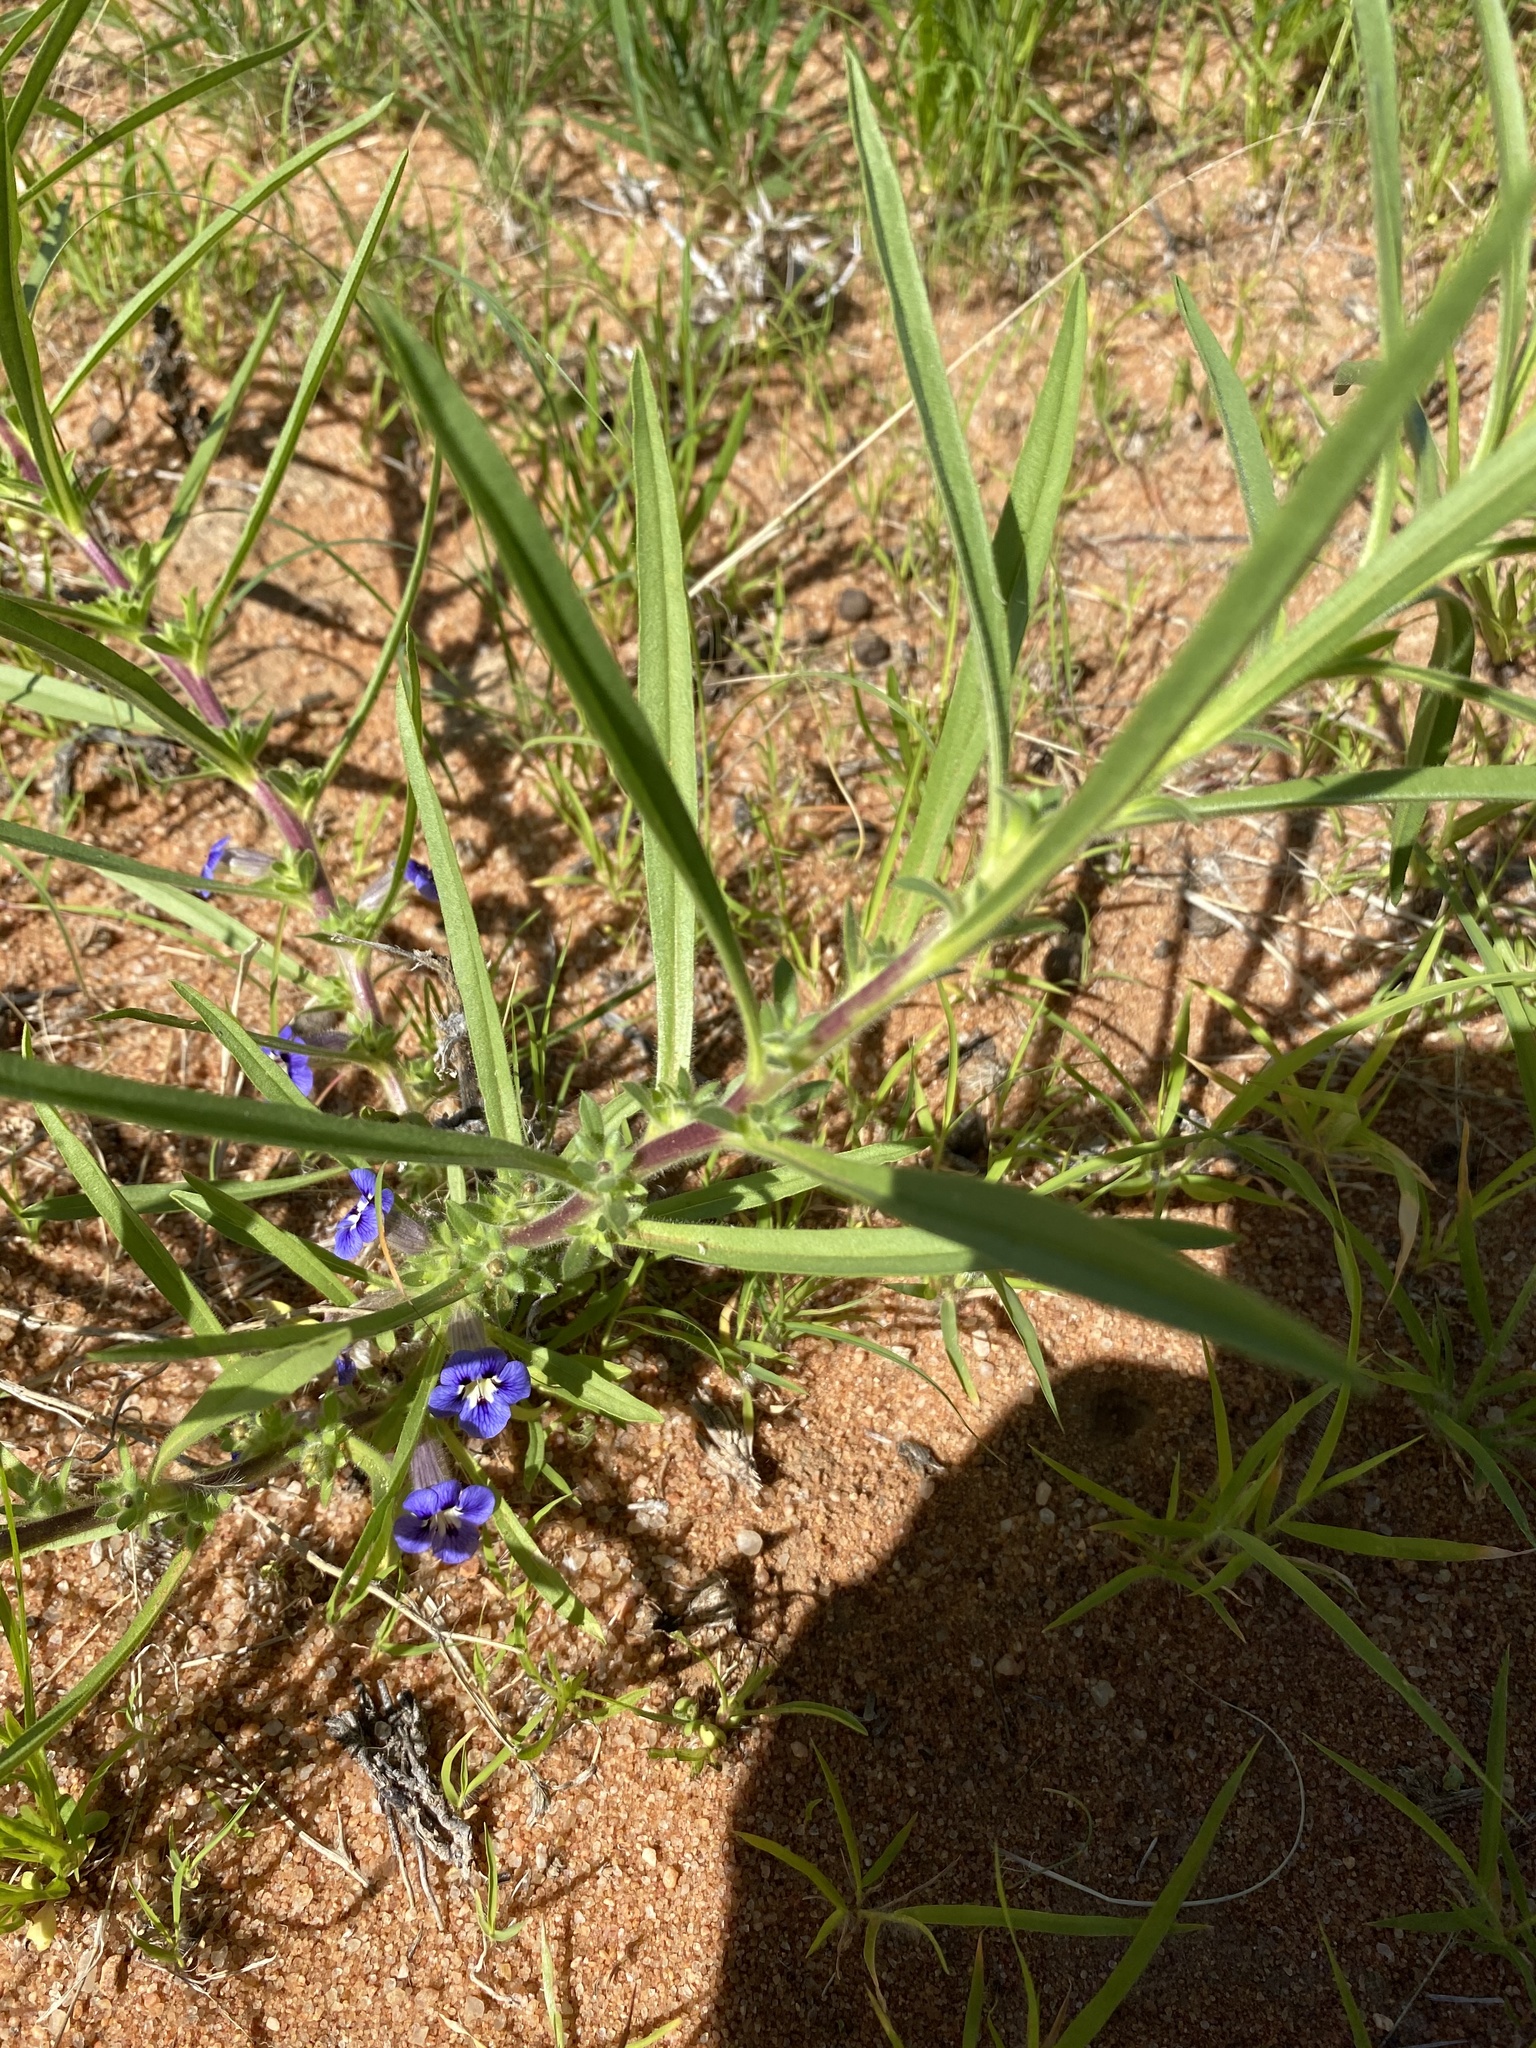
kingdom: Plantae
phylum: Tracheophyta
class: Magnoliopsida
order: Lamiales
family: Scrophulariaceae
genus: Aptosimum
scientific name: Aptosimum lineare
